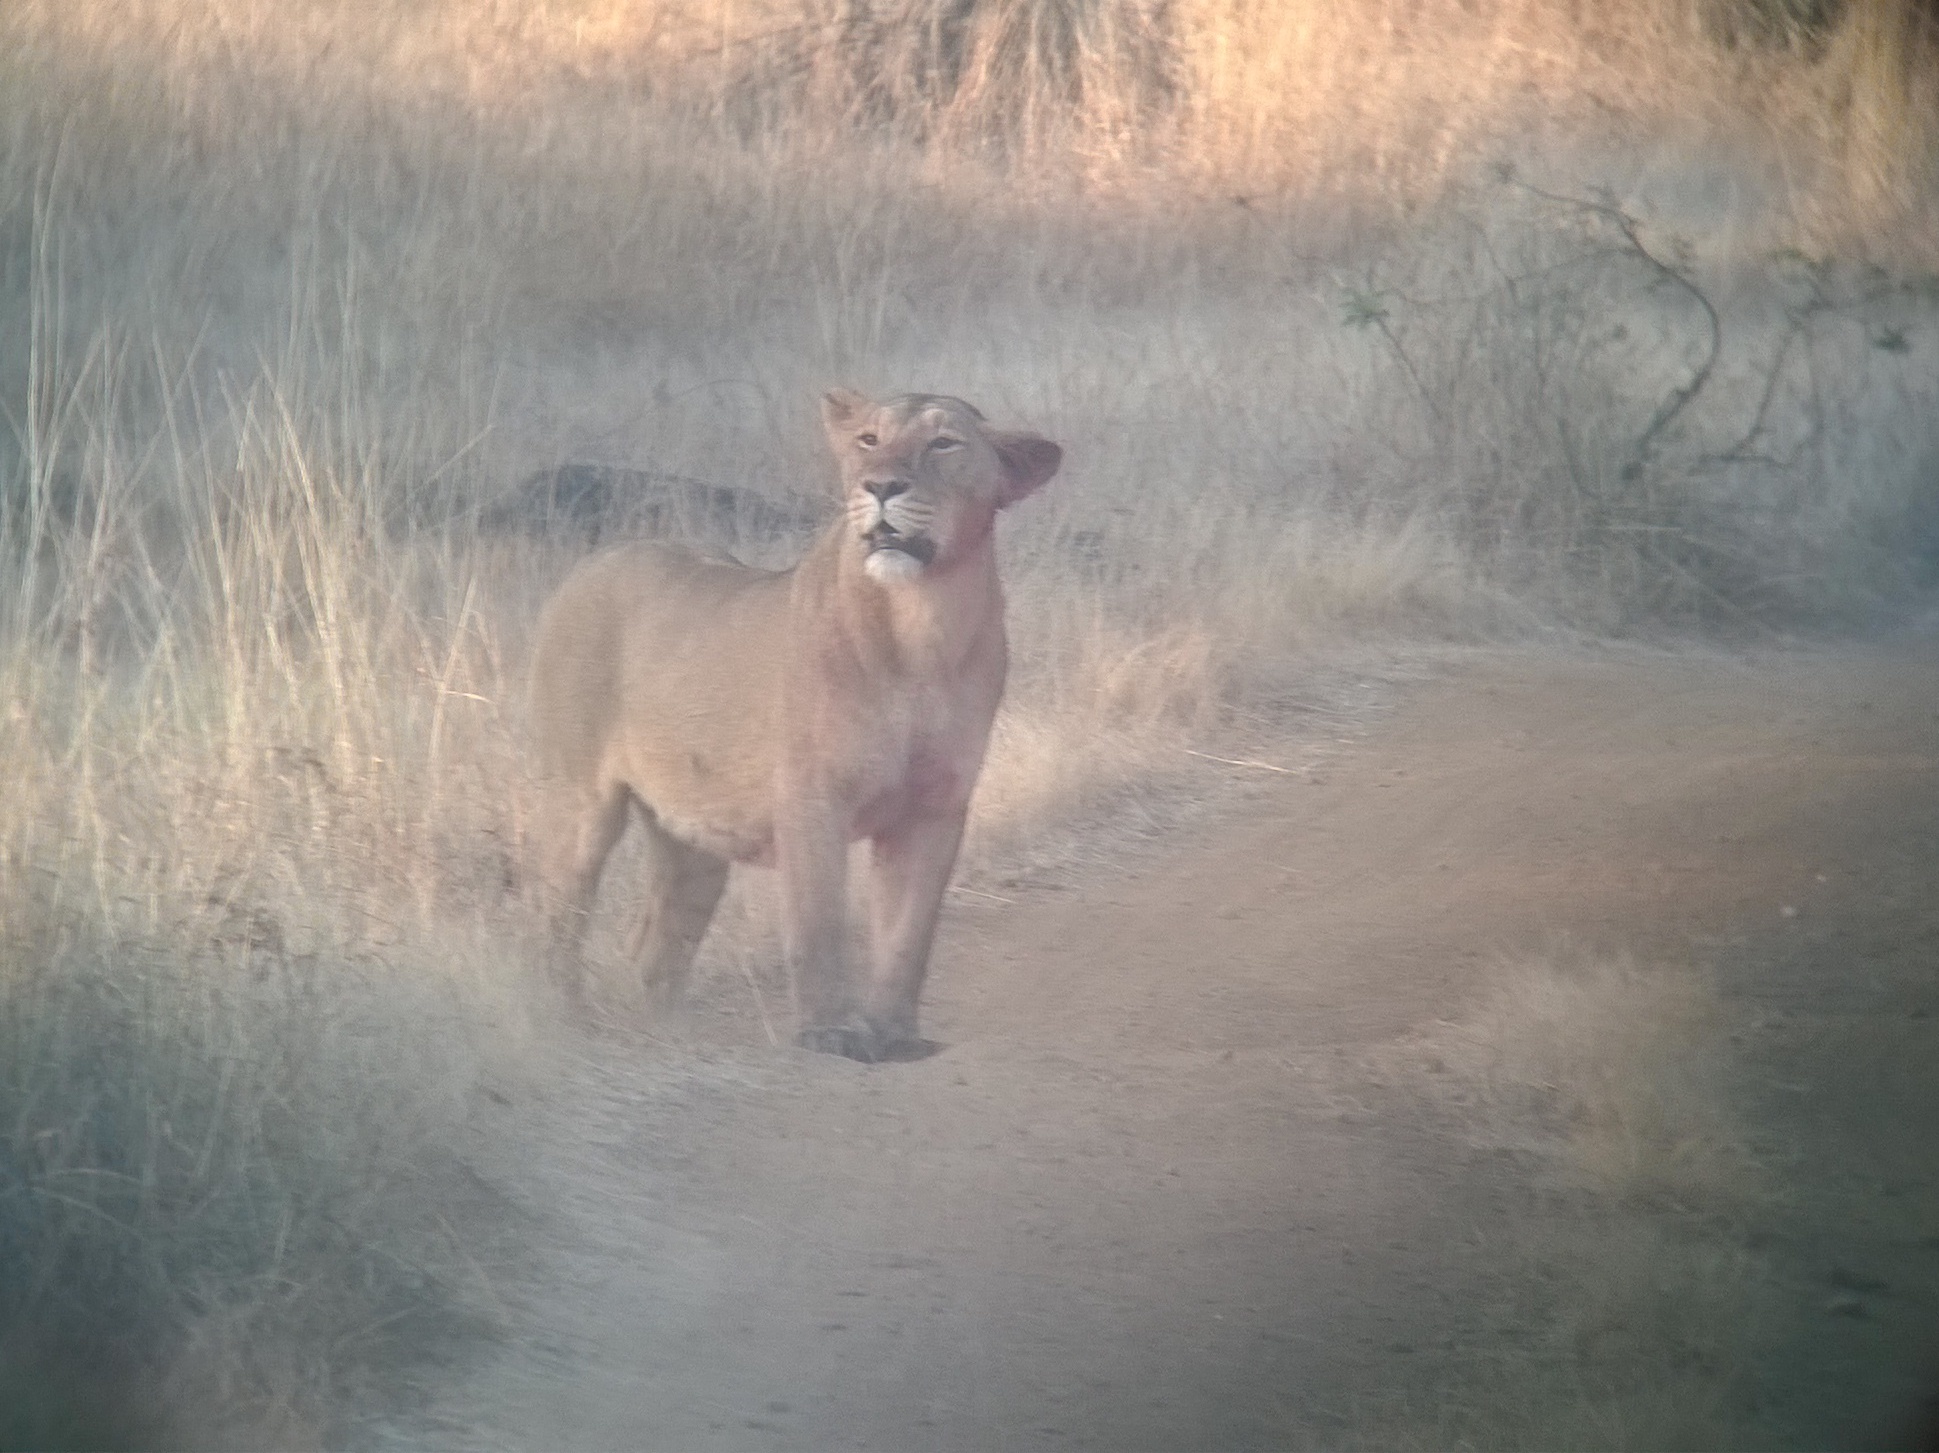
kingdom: Animalia
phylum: Chordata
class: Mammalia
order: Carnivora
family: Felidae
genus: Panthera
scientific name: Panthera leo
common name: Lion
